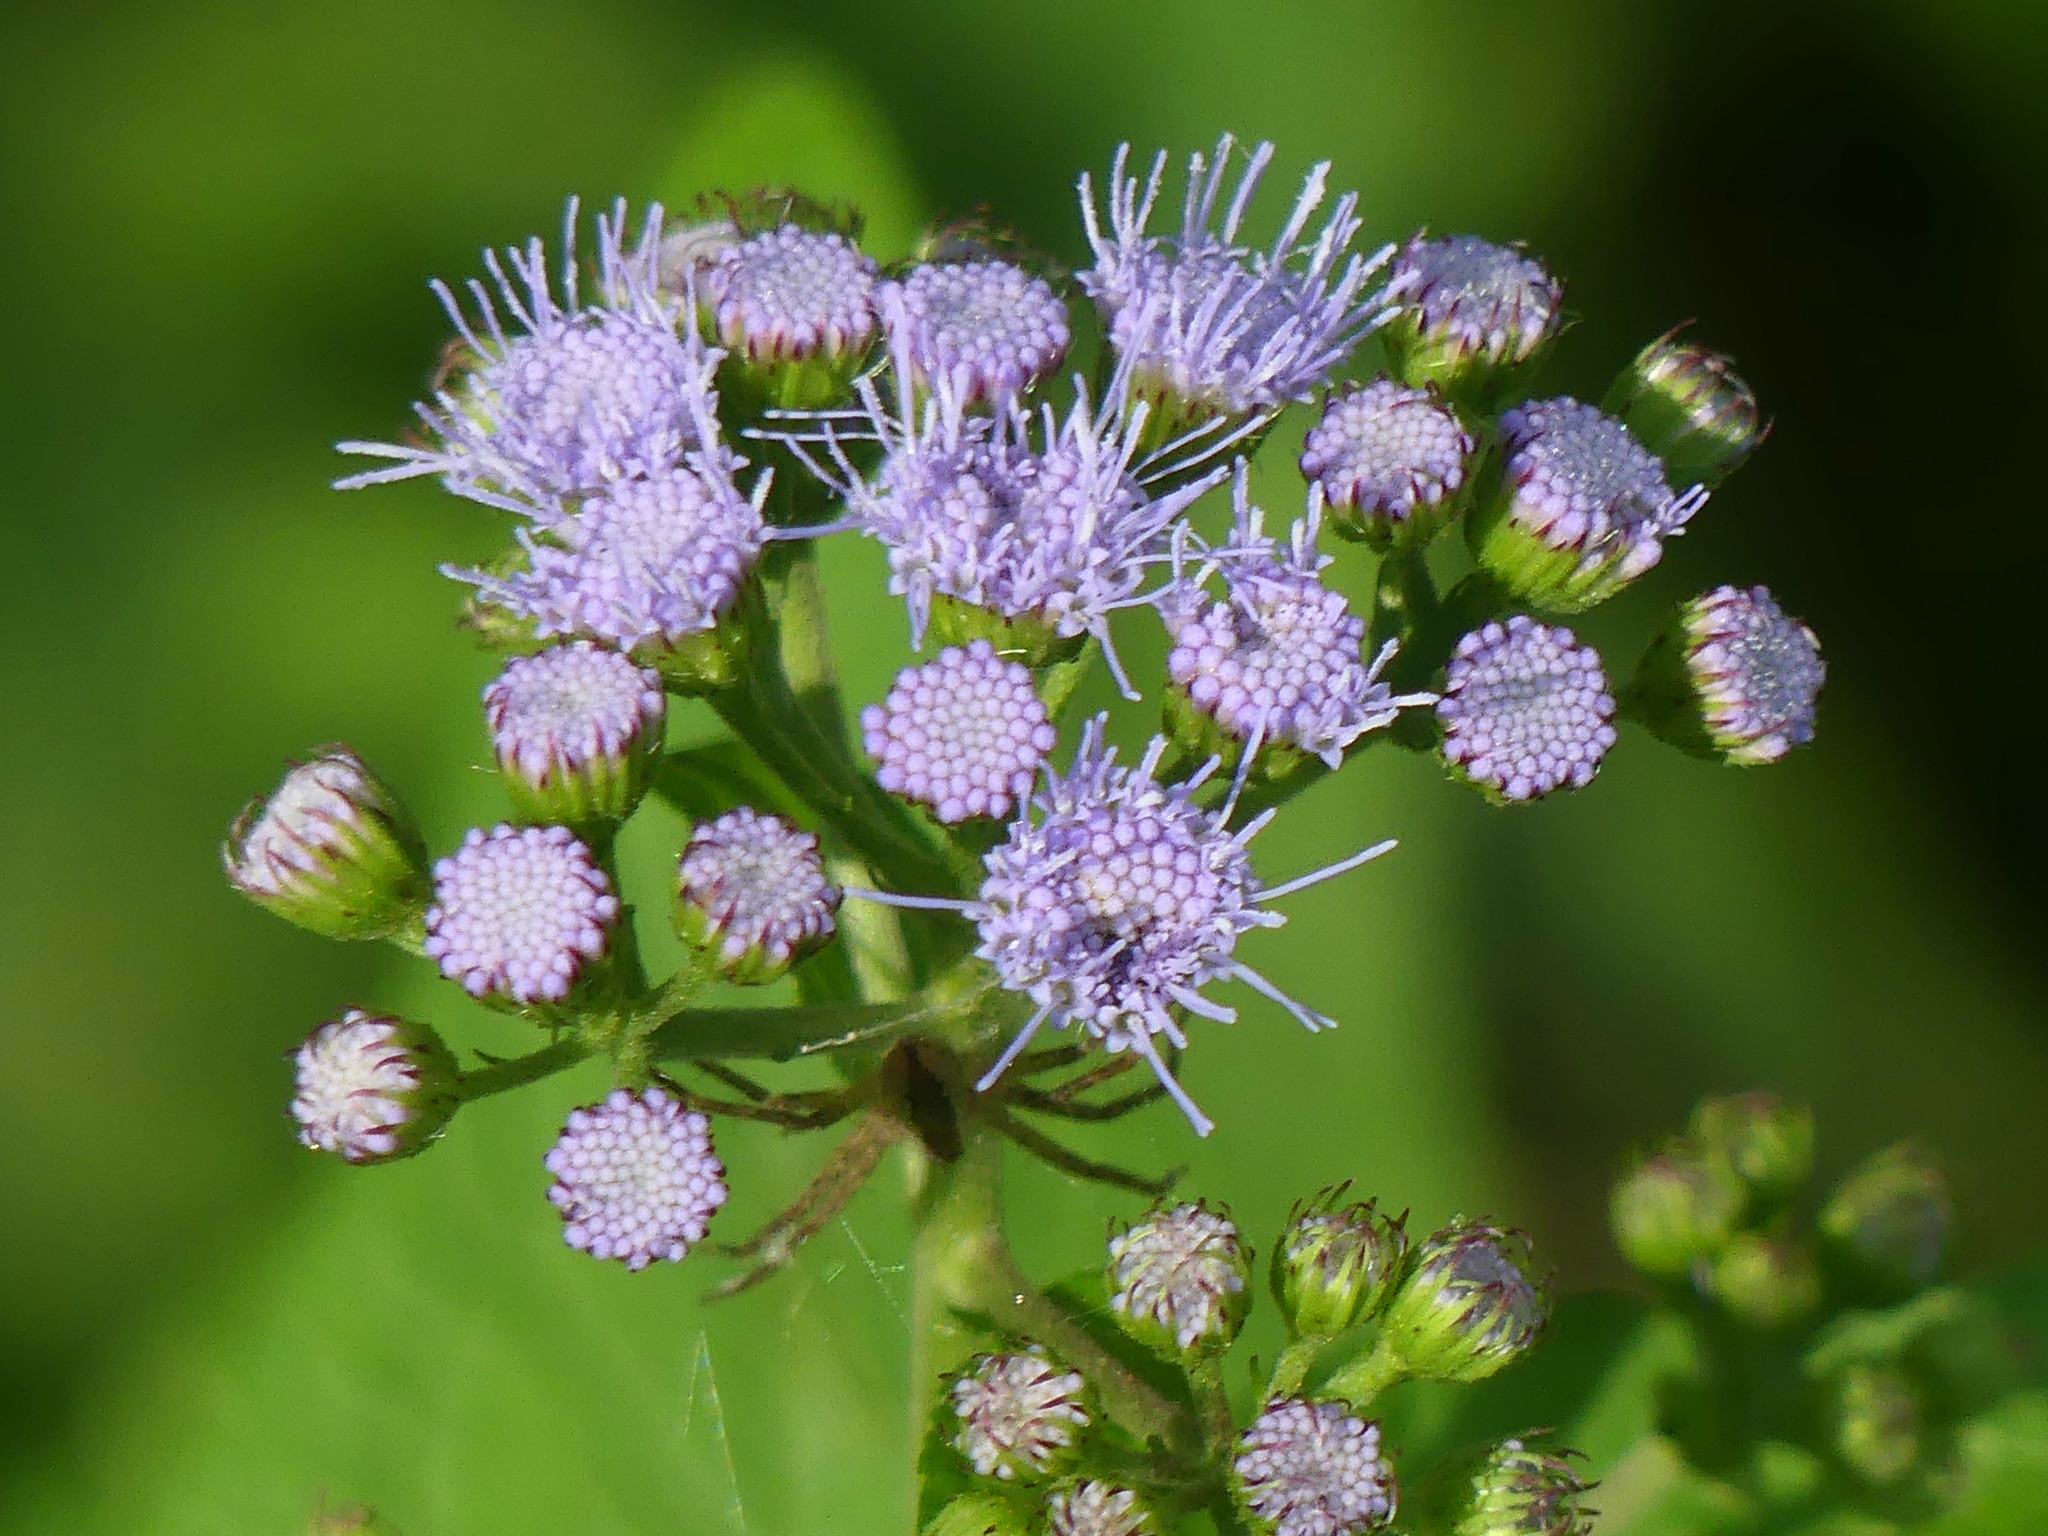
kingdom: Plantae
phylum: Tracheophyta
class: Magnoliopsida
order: Asterales
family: Asteraceae
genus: Conoclinium
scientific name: Conoclinium coelestinum
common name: Blue mistflower
